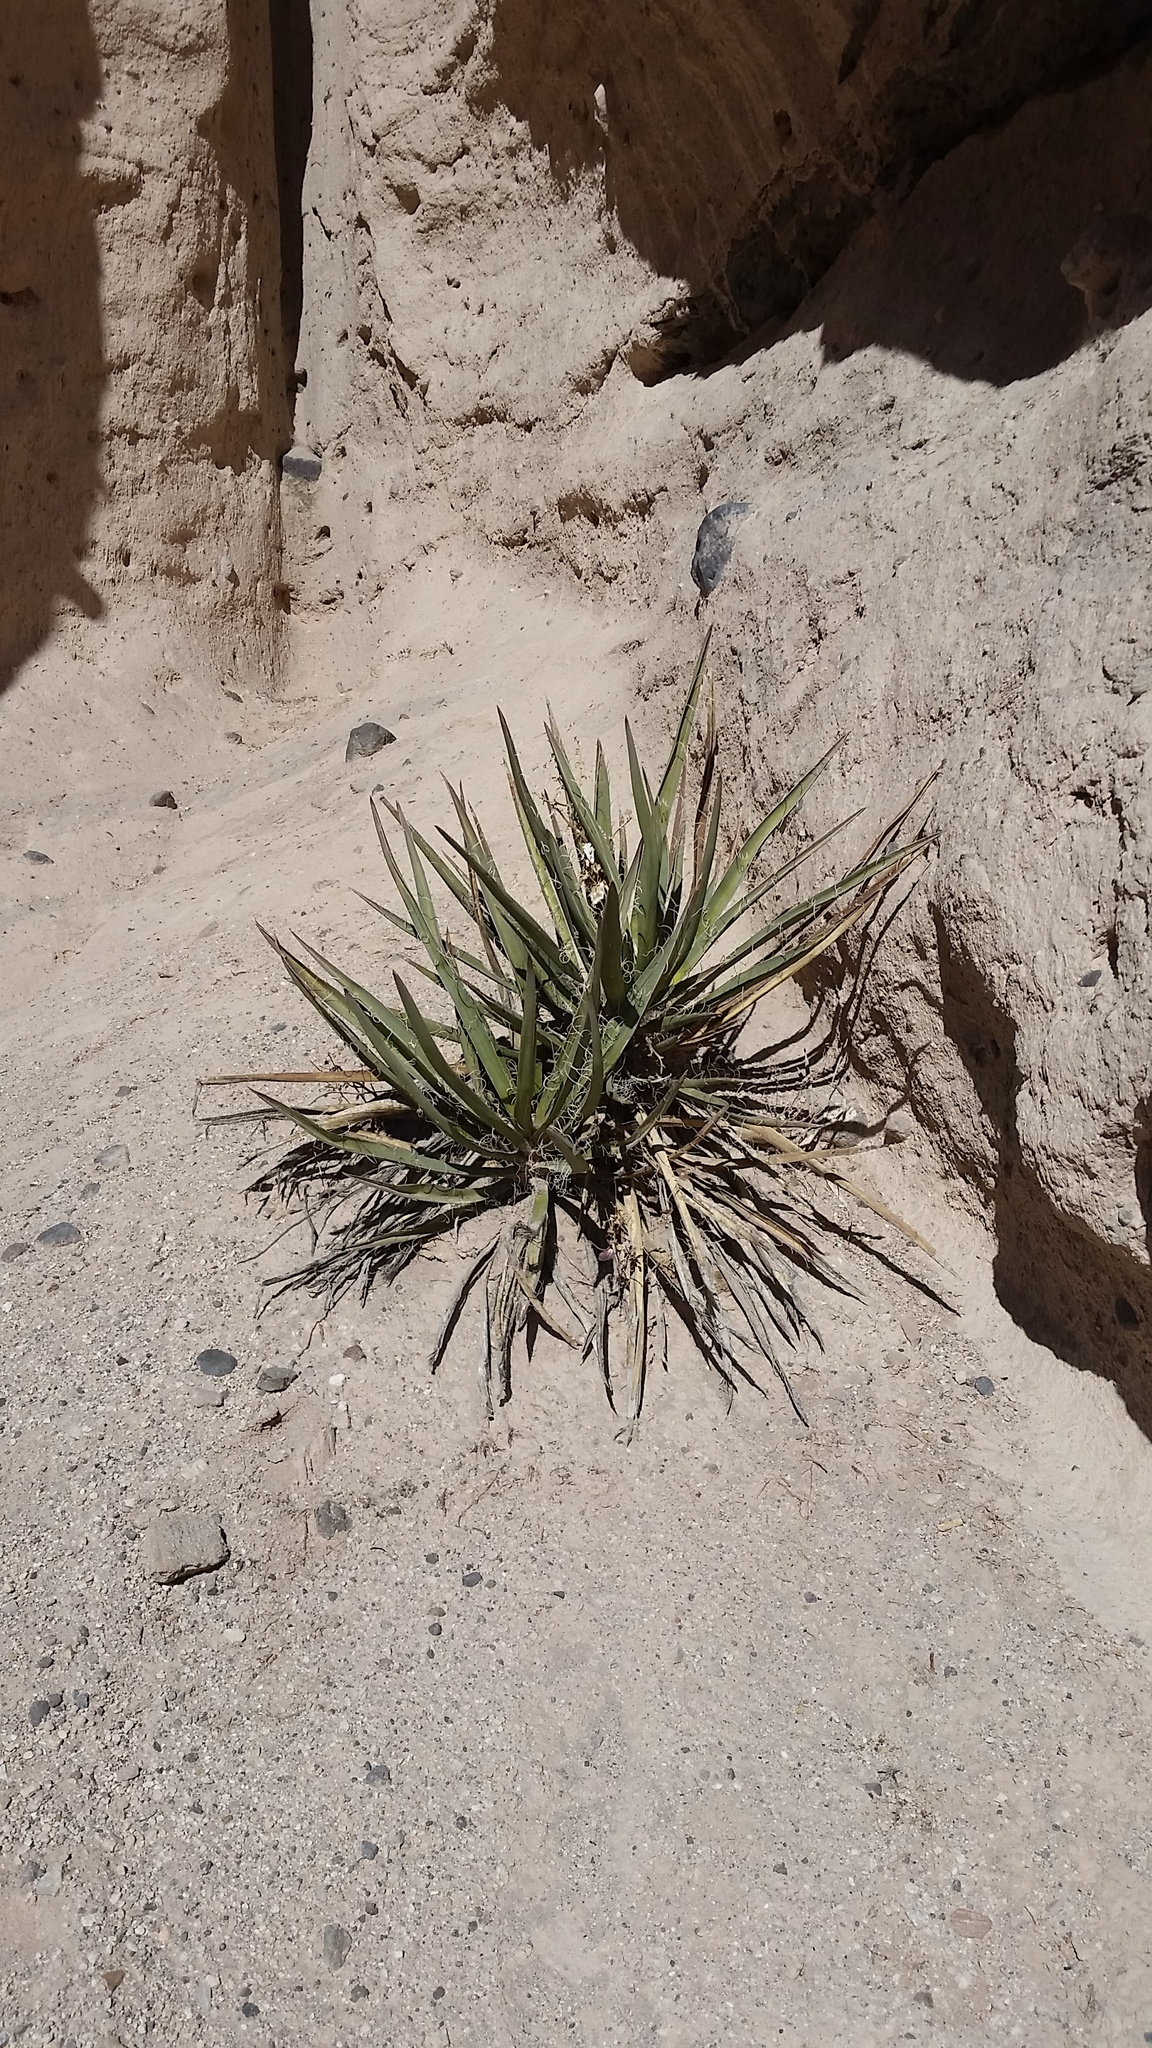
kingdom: Plantae
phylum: Tracheophyta
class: Liliopsida
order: Asparagales
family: Asparagaceae
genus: Yucca
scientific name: Yucca baccata
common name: Banana yucca
